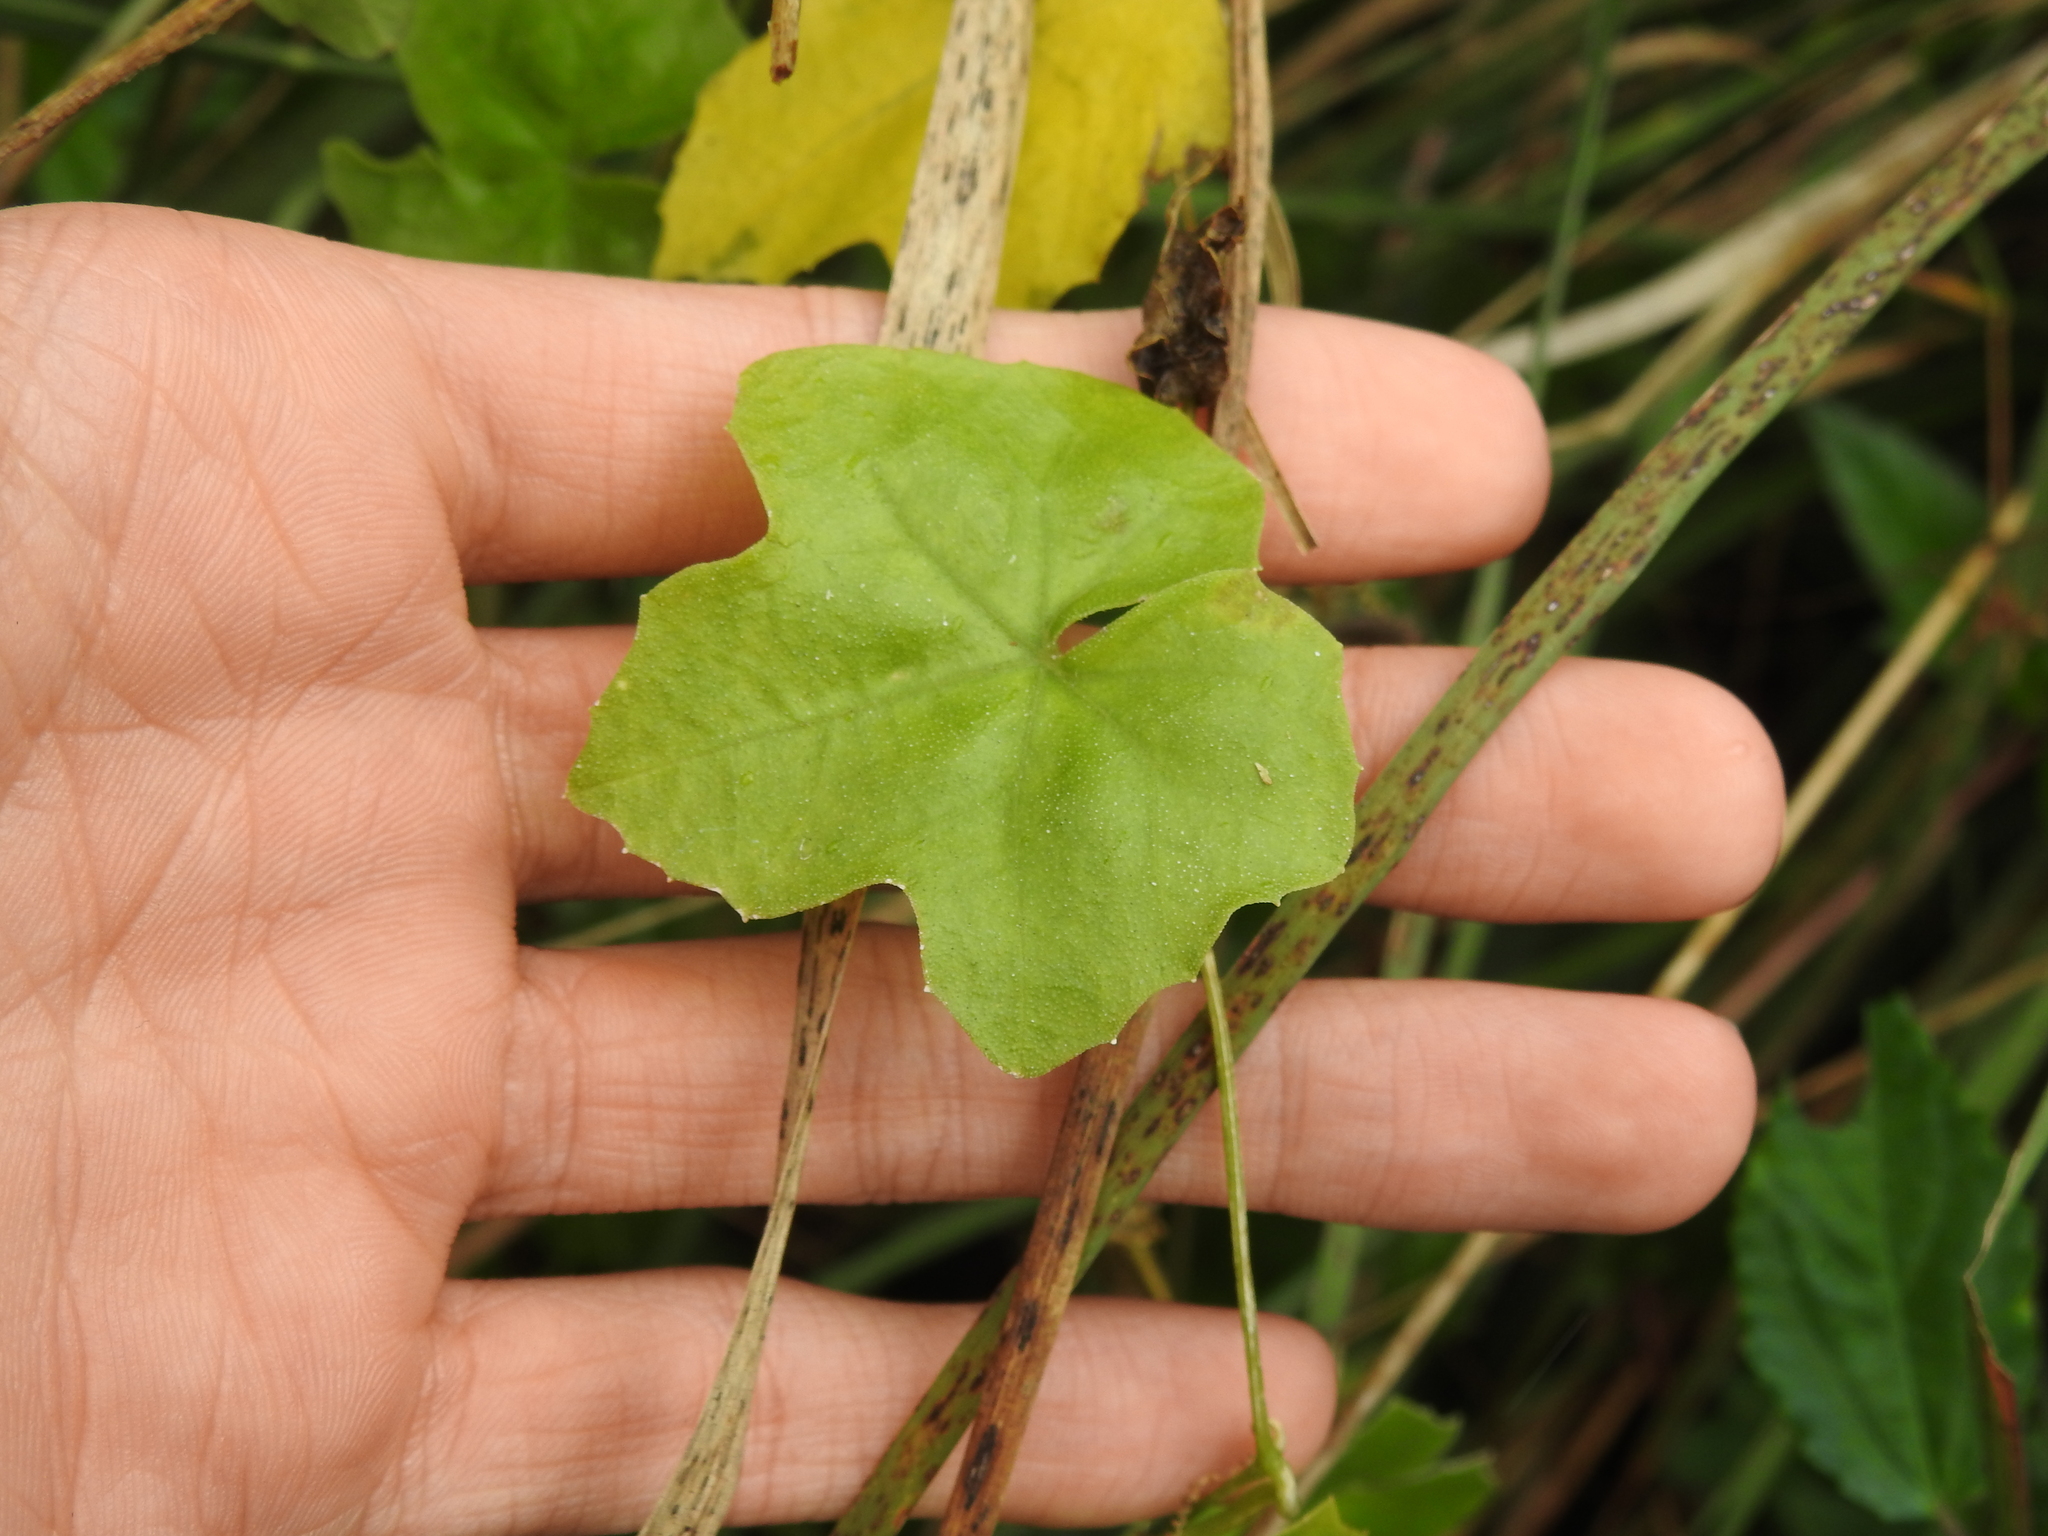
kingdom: Plantae
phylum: Tracheophyta
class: Magnoliopsida
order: Cucurbitales
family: Cucurbitaceae
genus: Melothria
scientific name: Melothria pendula
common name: Creeping-cucumber
